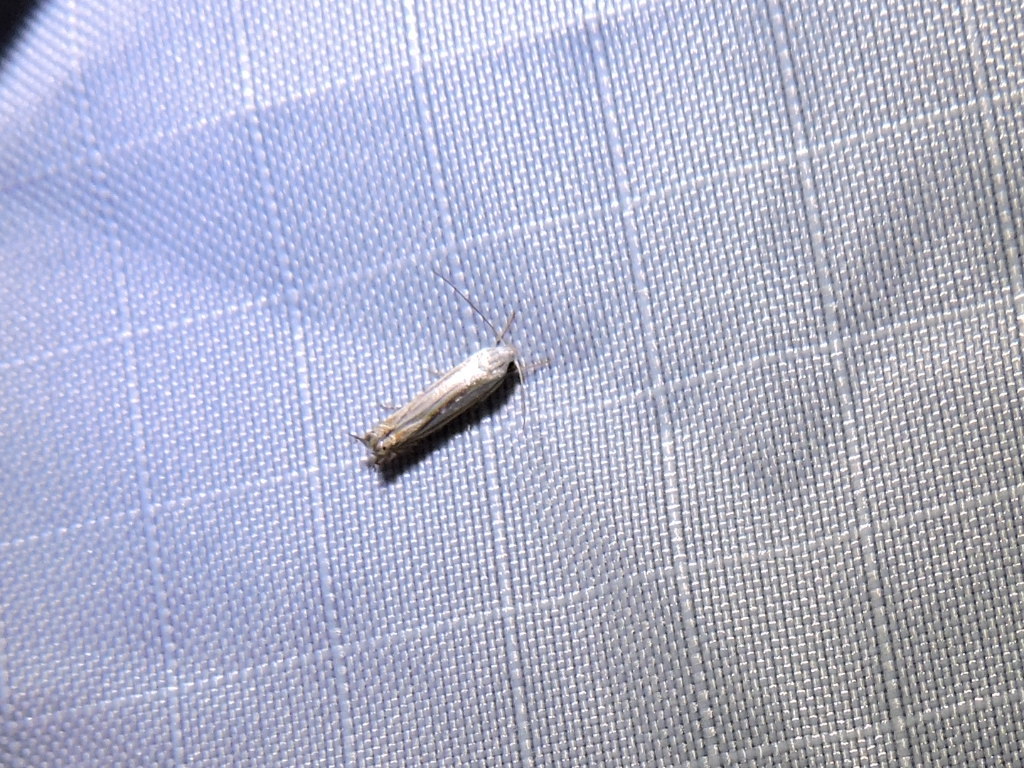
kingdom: Animalia
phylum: Arthropoda
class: Insecta
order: Lepidoptera
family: Gelechiidae
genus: Polyhymno
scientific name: Polyhymno luteostrigella
